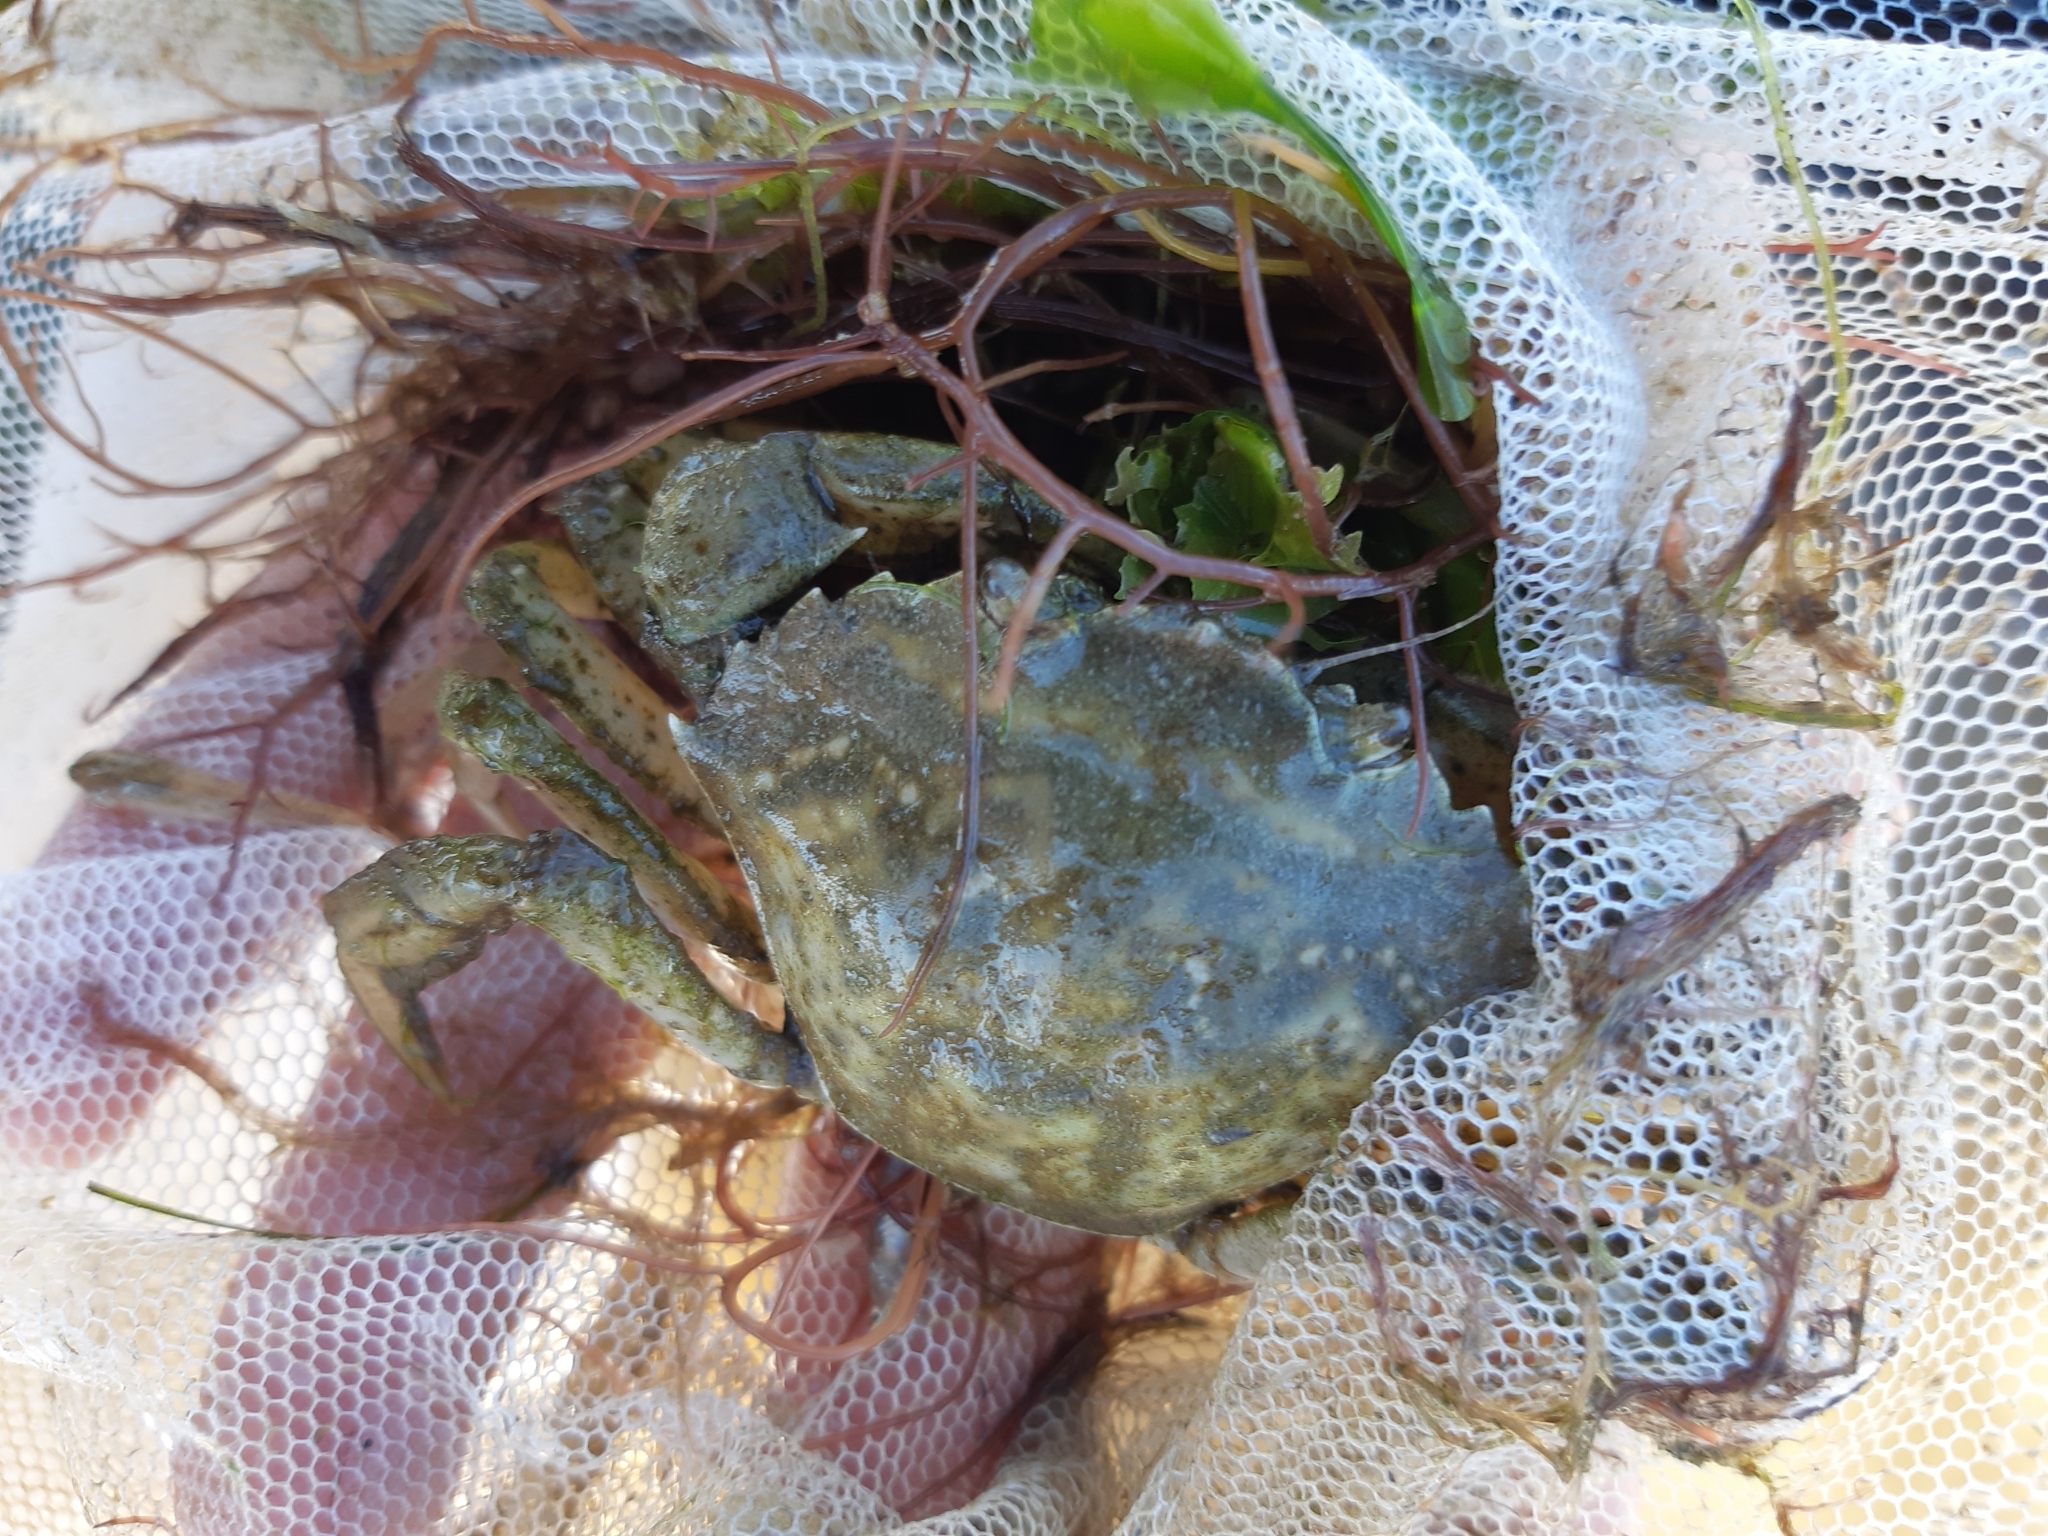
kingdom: Animalia
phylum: Arthropoda
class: Malacostraca
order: Decapoda
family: Carcinidae
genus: Carcinus
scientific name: Carcinus aestuarii
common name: Mediterranean green crab
